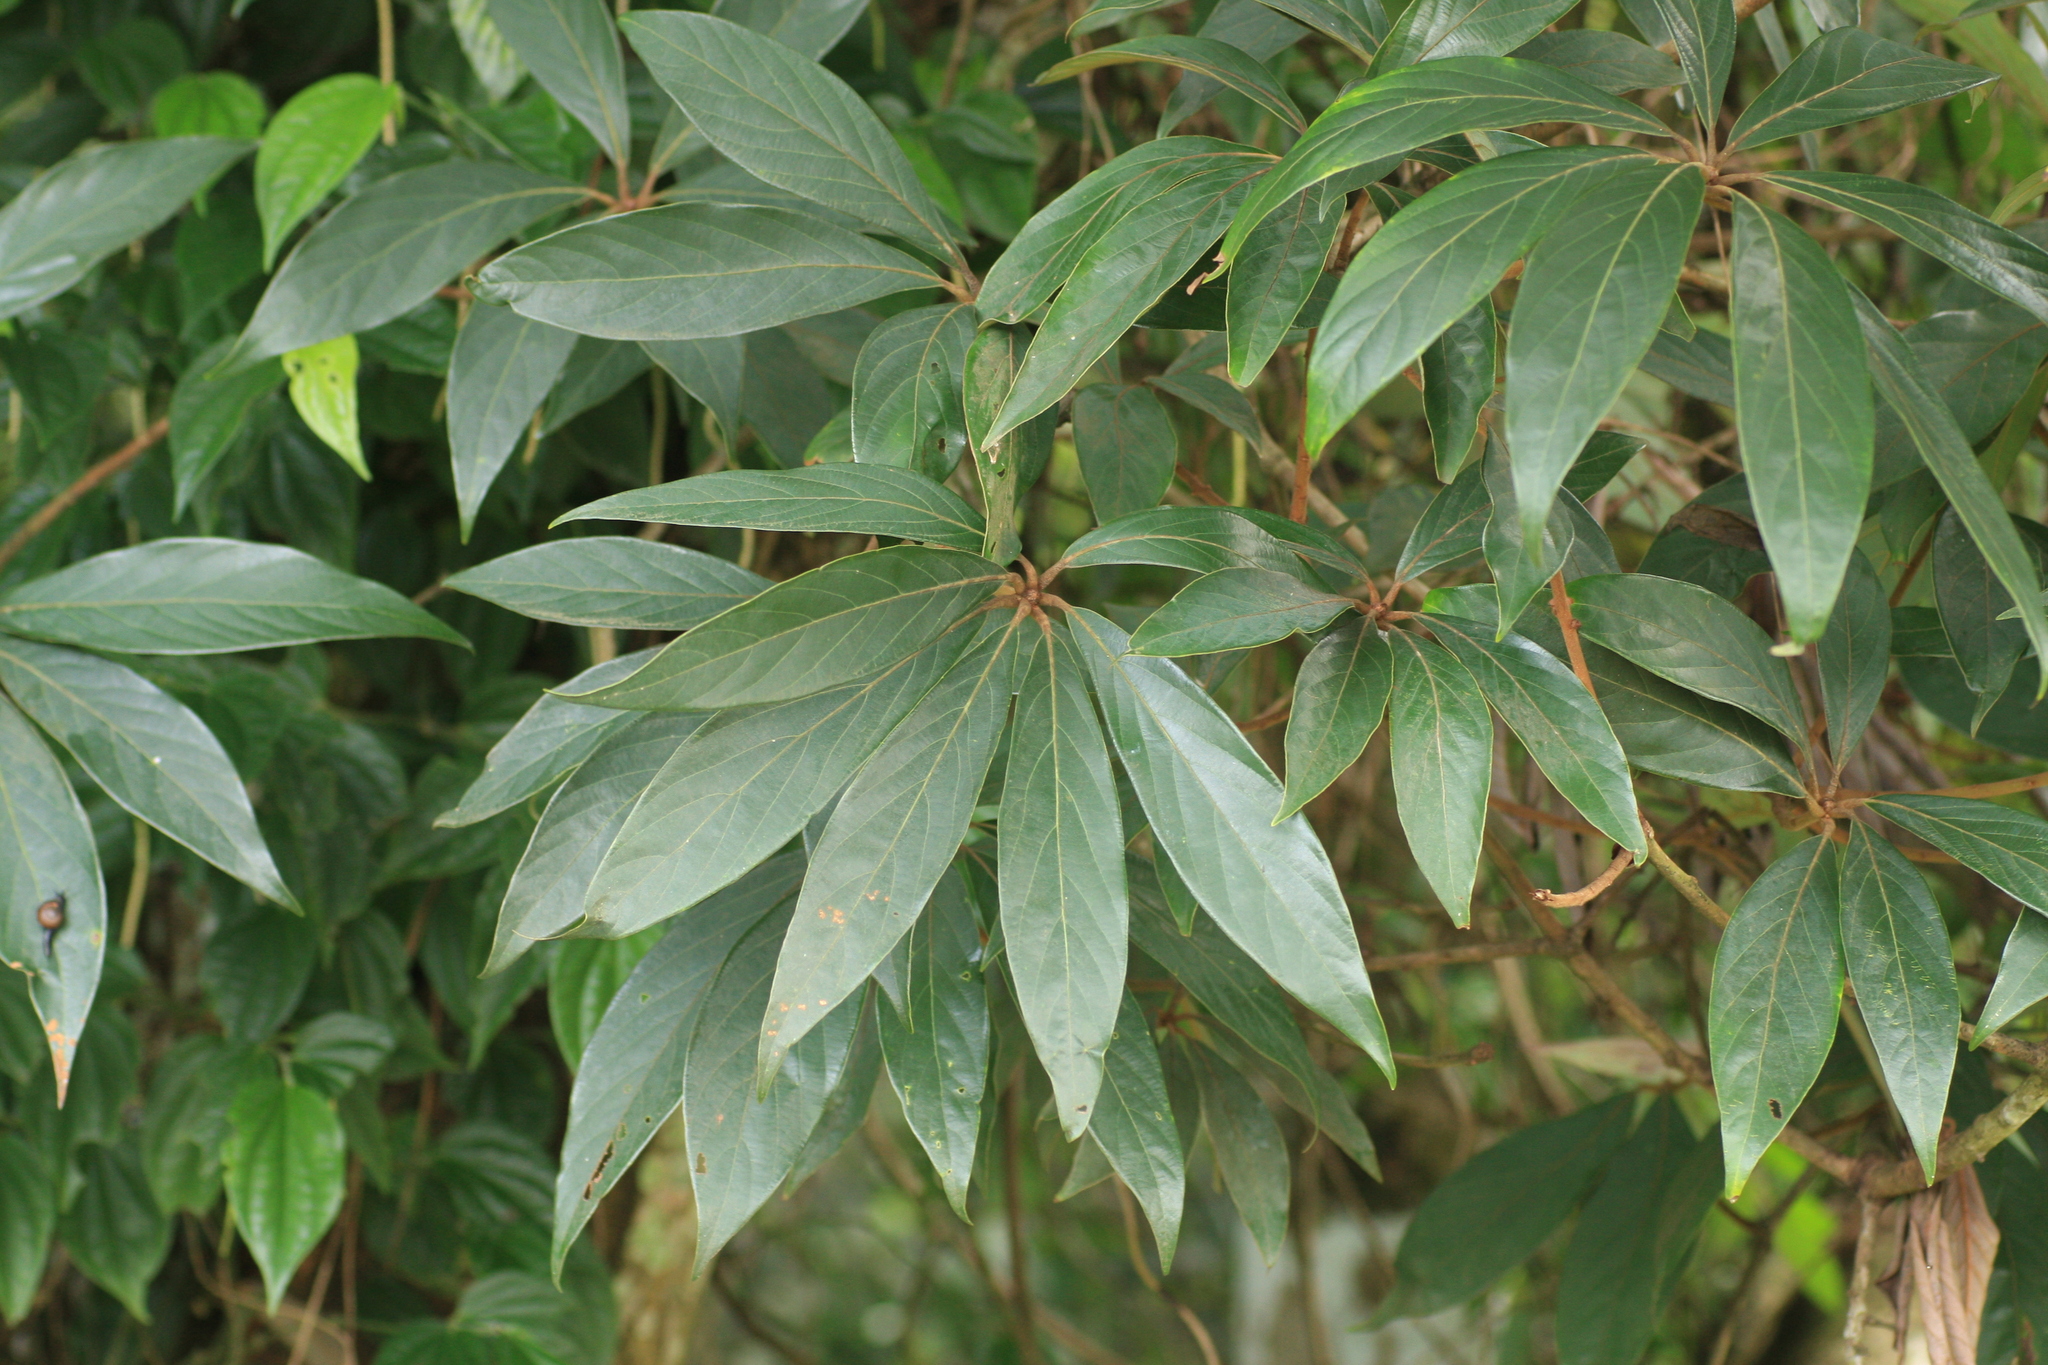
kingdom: Plantae
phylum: Tracheophyta
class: Magnoliopsida
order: Laurales
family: Lauraceae
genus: Actinodaphne
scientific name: Actinodaphne bourdillonii
